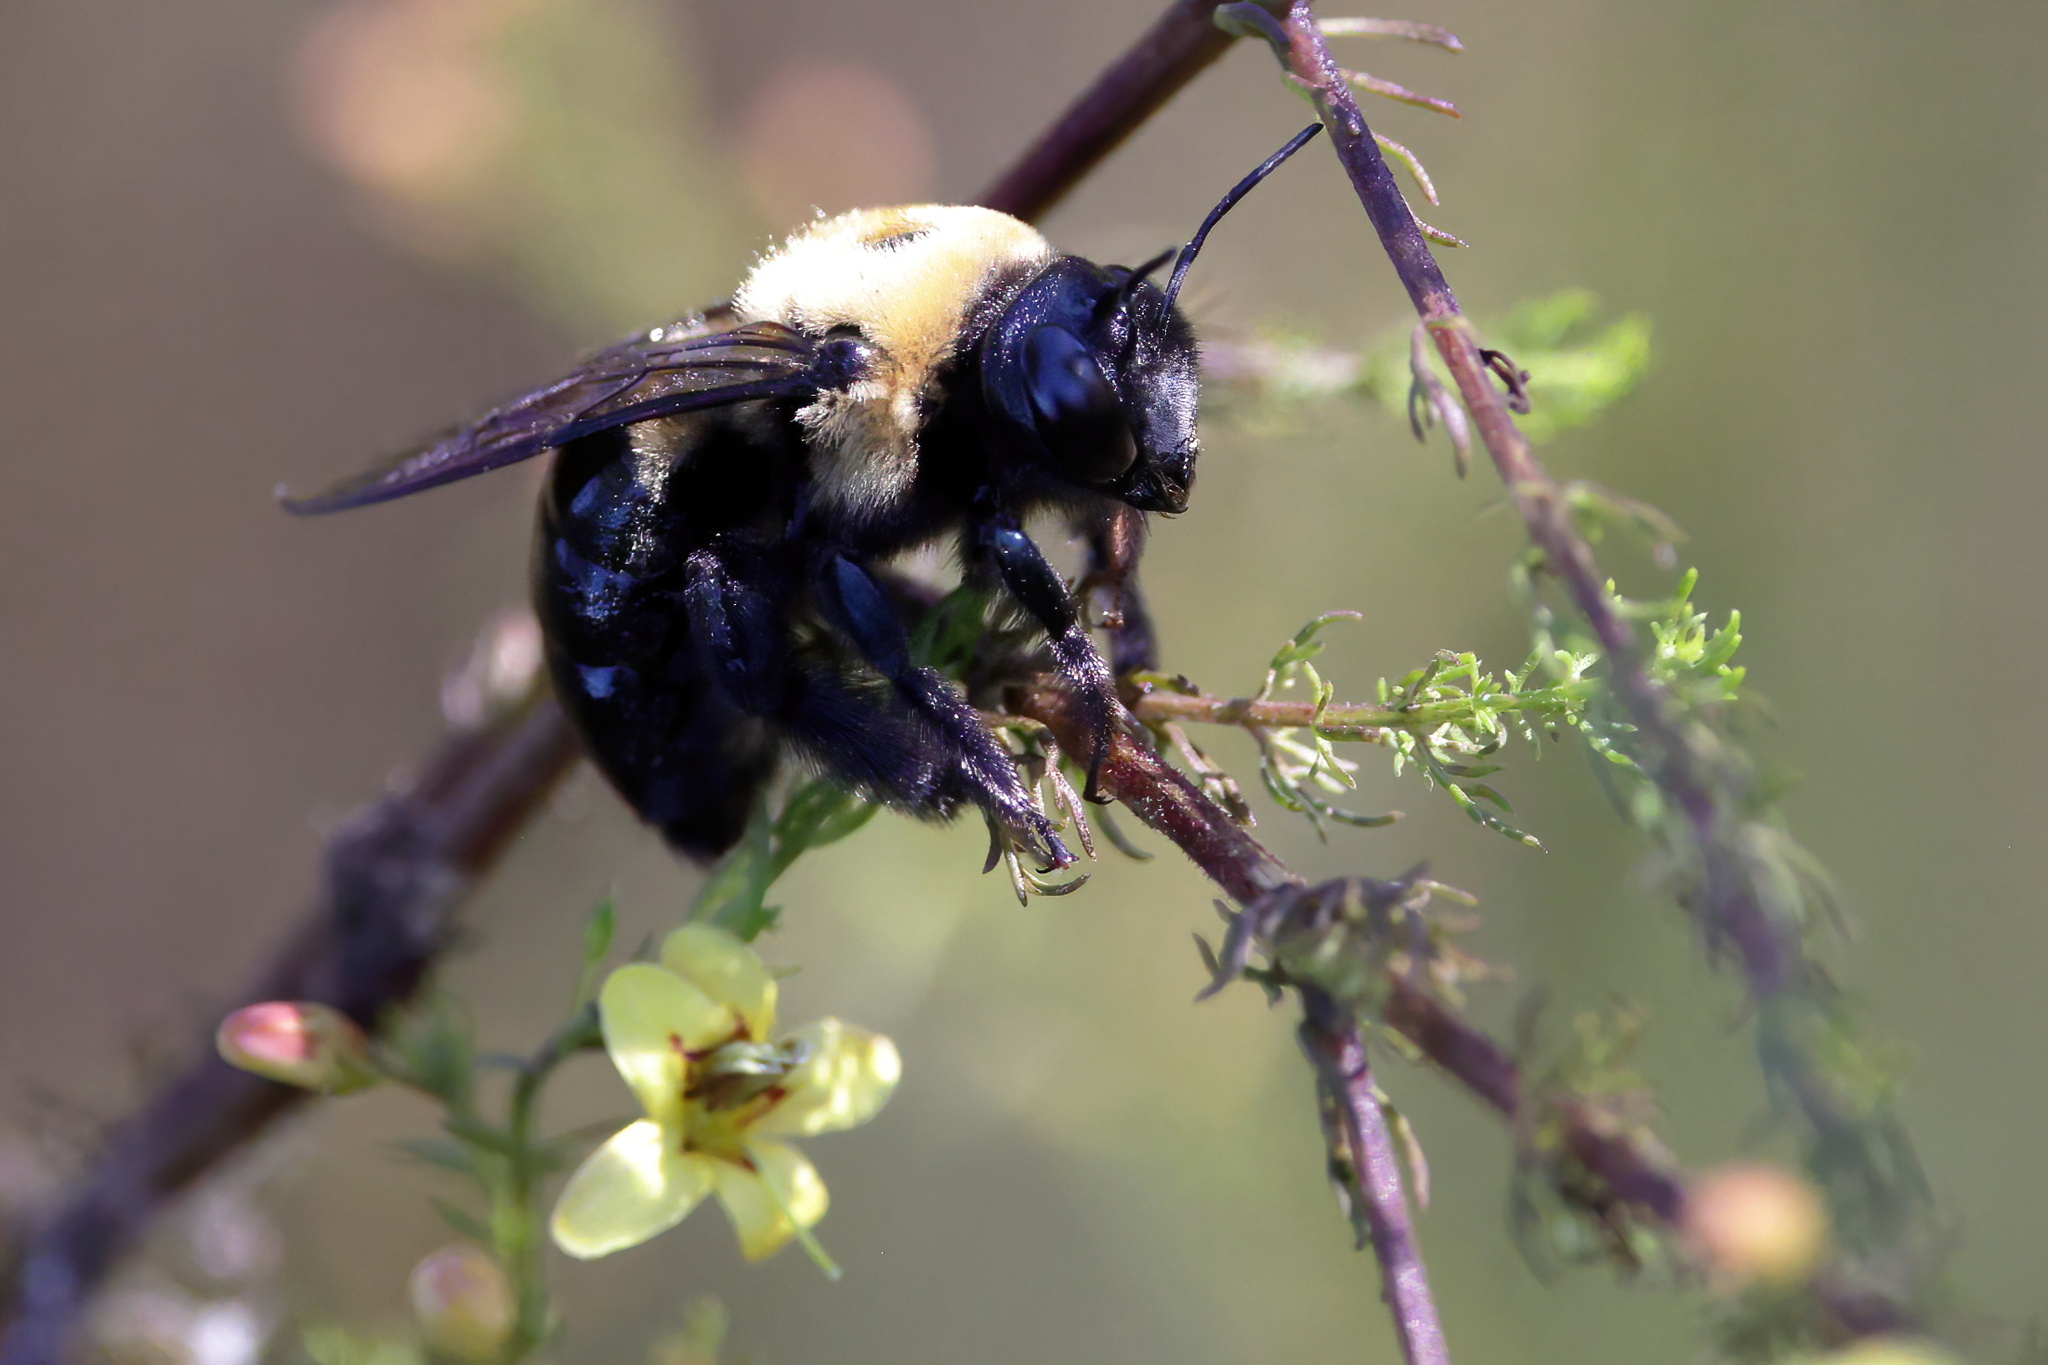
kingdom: Animalia
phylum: Arthropoda
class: Insecta
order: Hymenoptera
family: Apidae
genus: Xylocopa
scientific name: Xylocopa virginica
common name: Carpenter bee
